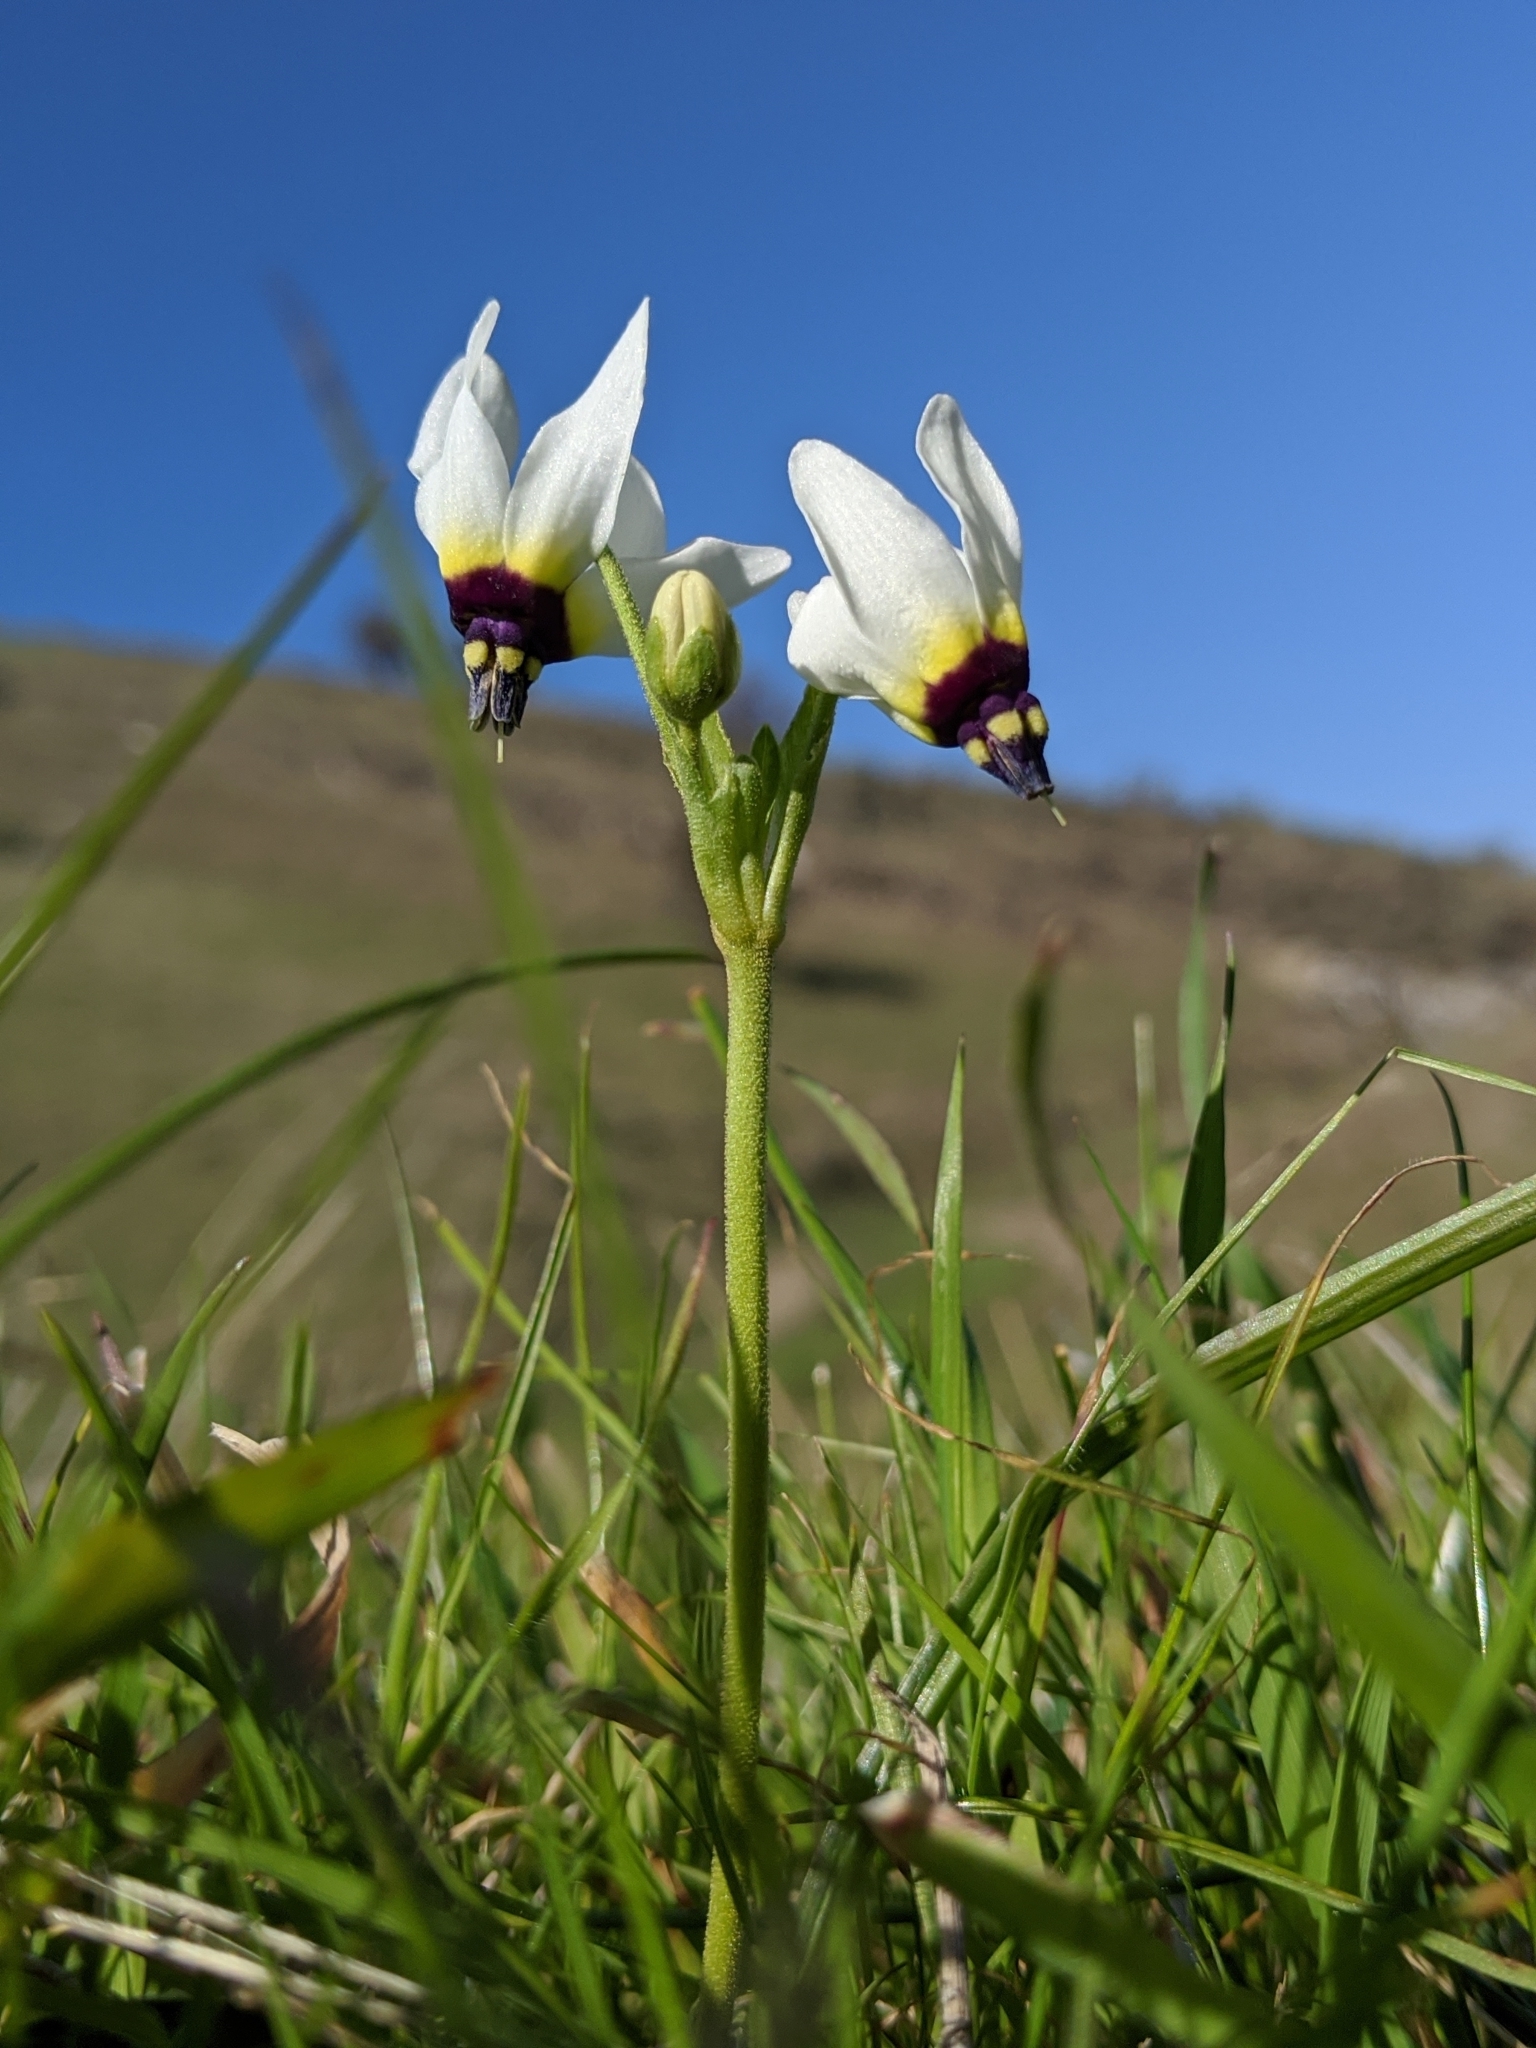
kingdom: Plantae
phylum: Tracheophyta
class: Magnoliopsida
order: Ericales
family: Primulaceae
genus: Dodecatheon
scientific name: Dodecatheon clevelandii
